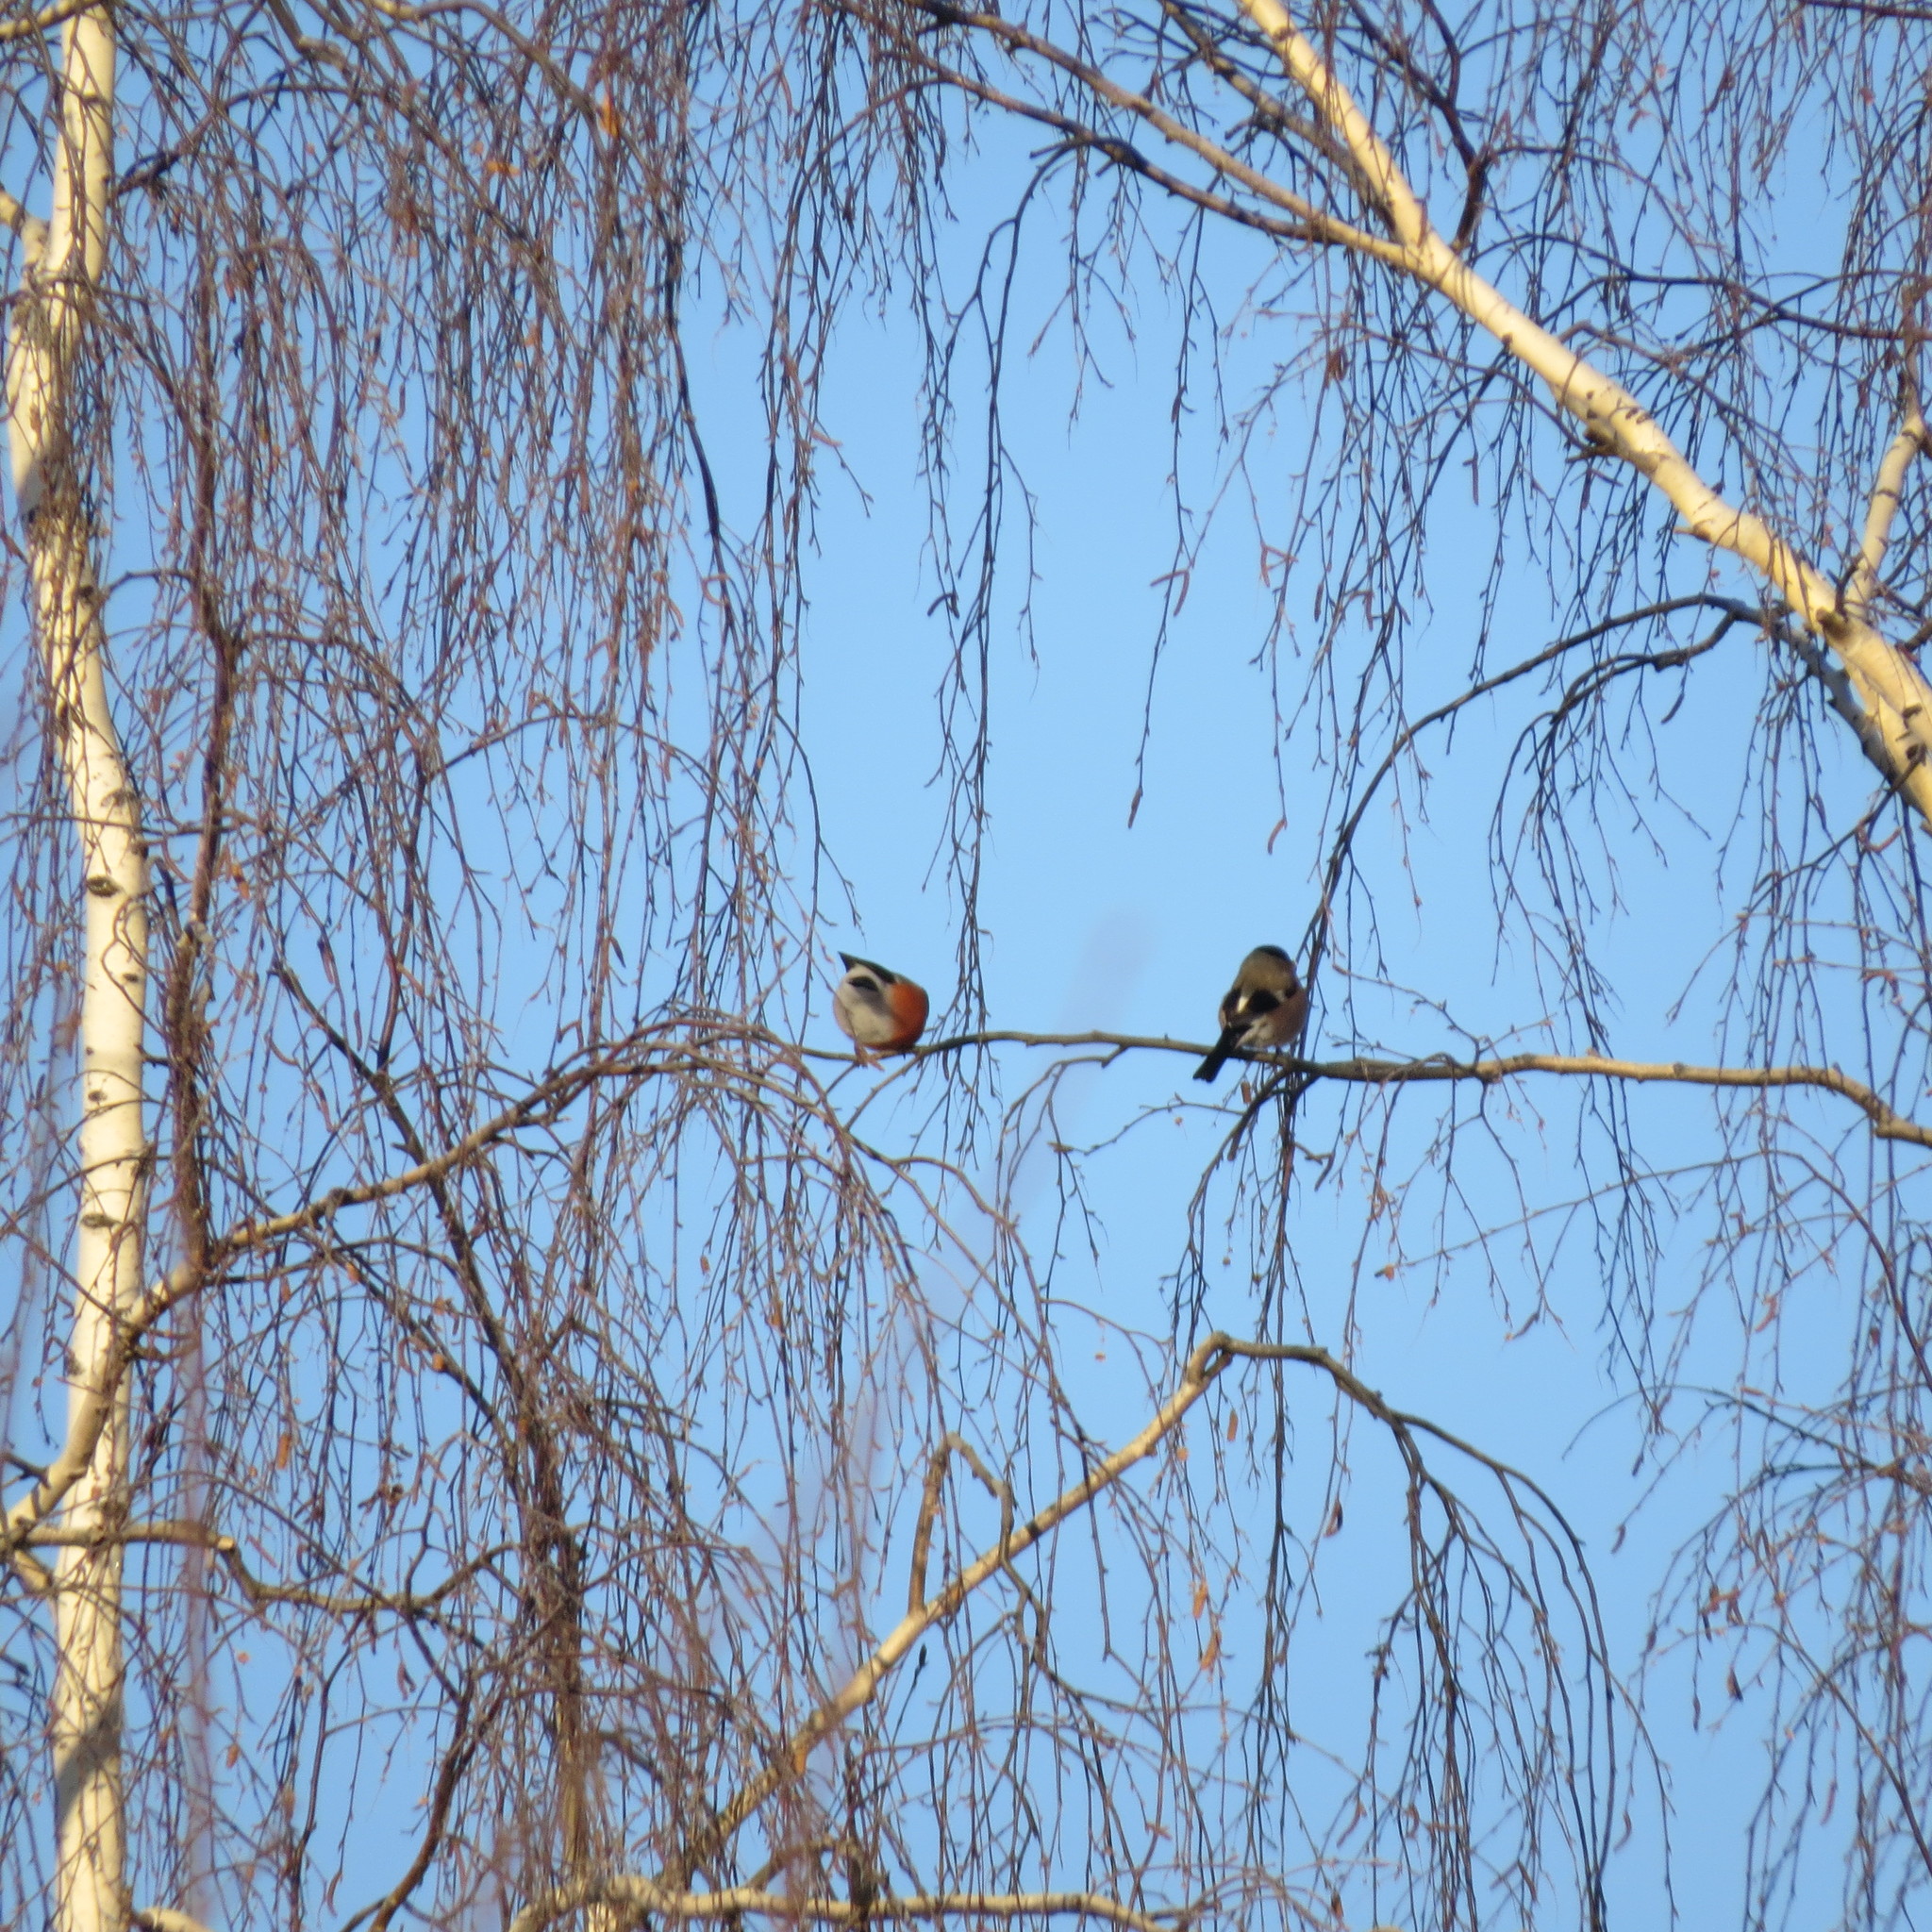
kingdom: Animalia
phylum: Chordata
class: Aves
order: Passeriformes
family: Fringillidae
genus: Pyrrhula
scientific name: Pyrrhula pyrrhula
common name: Eurasian bullfinch
